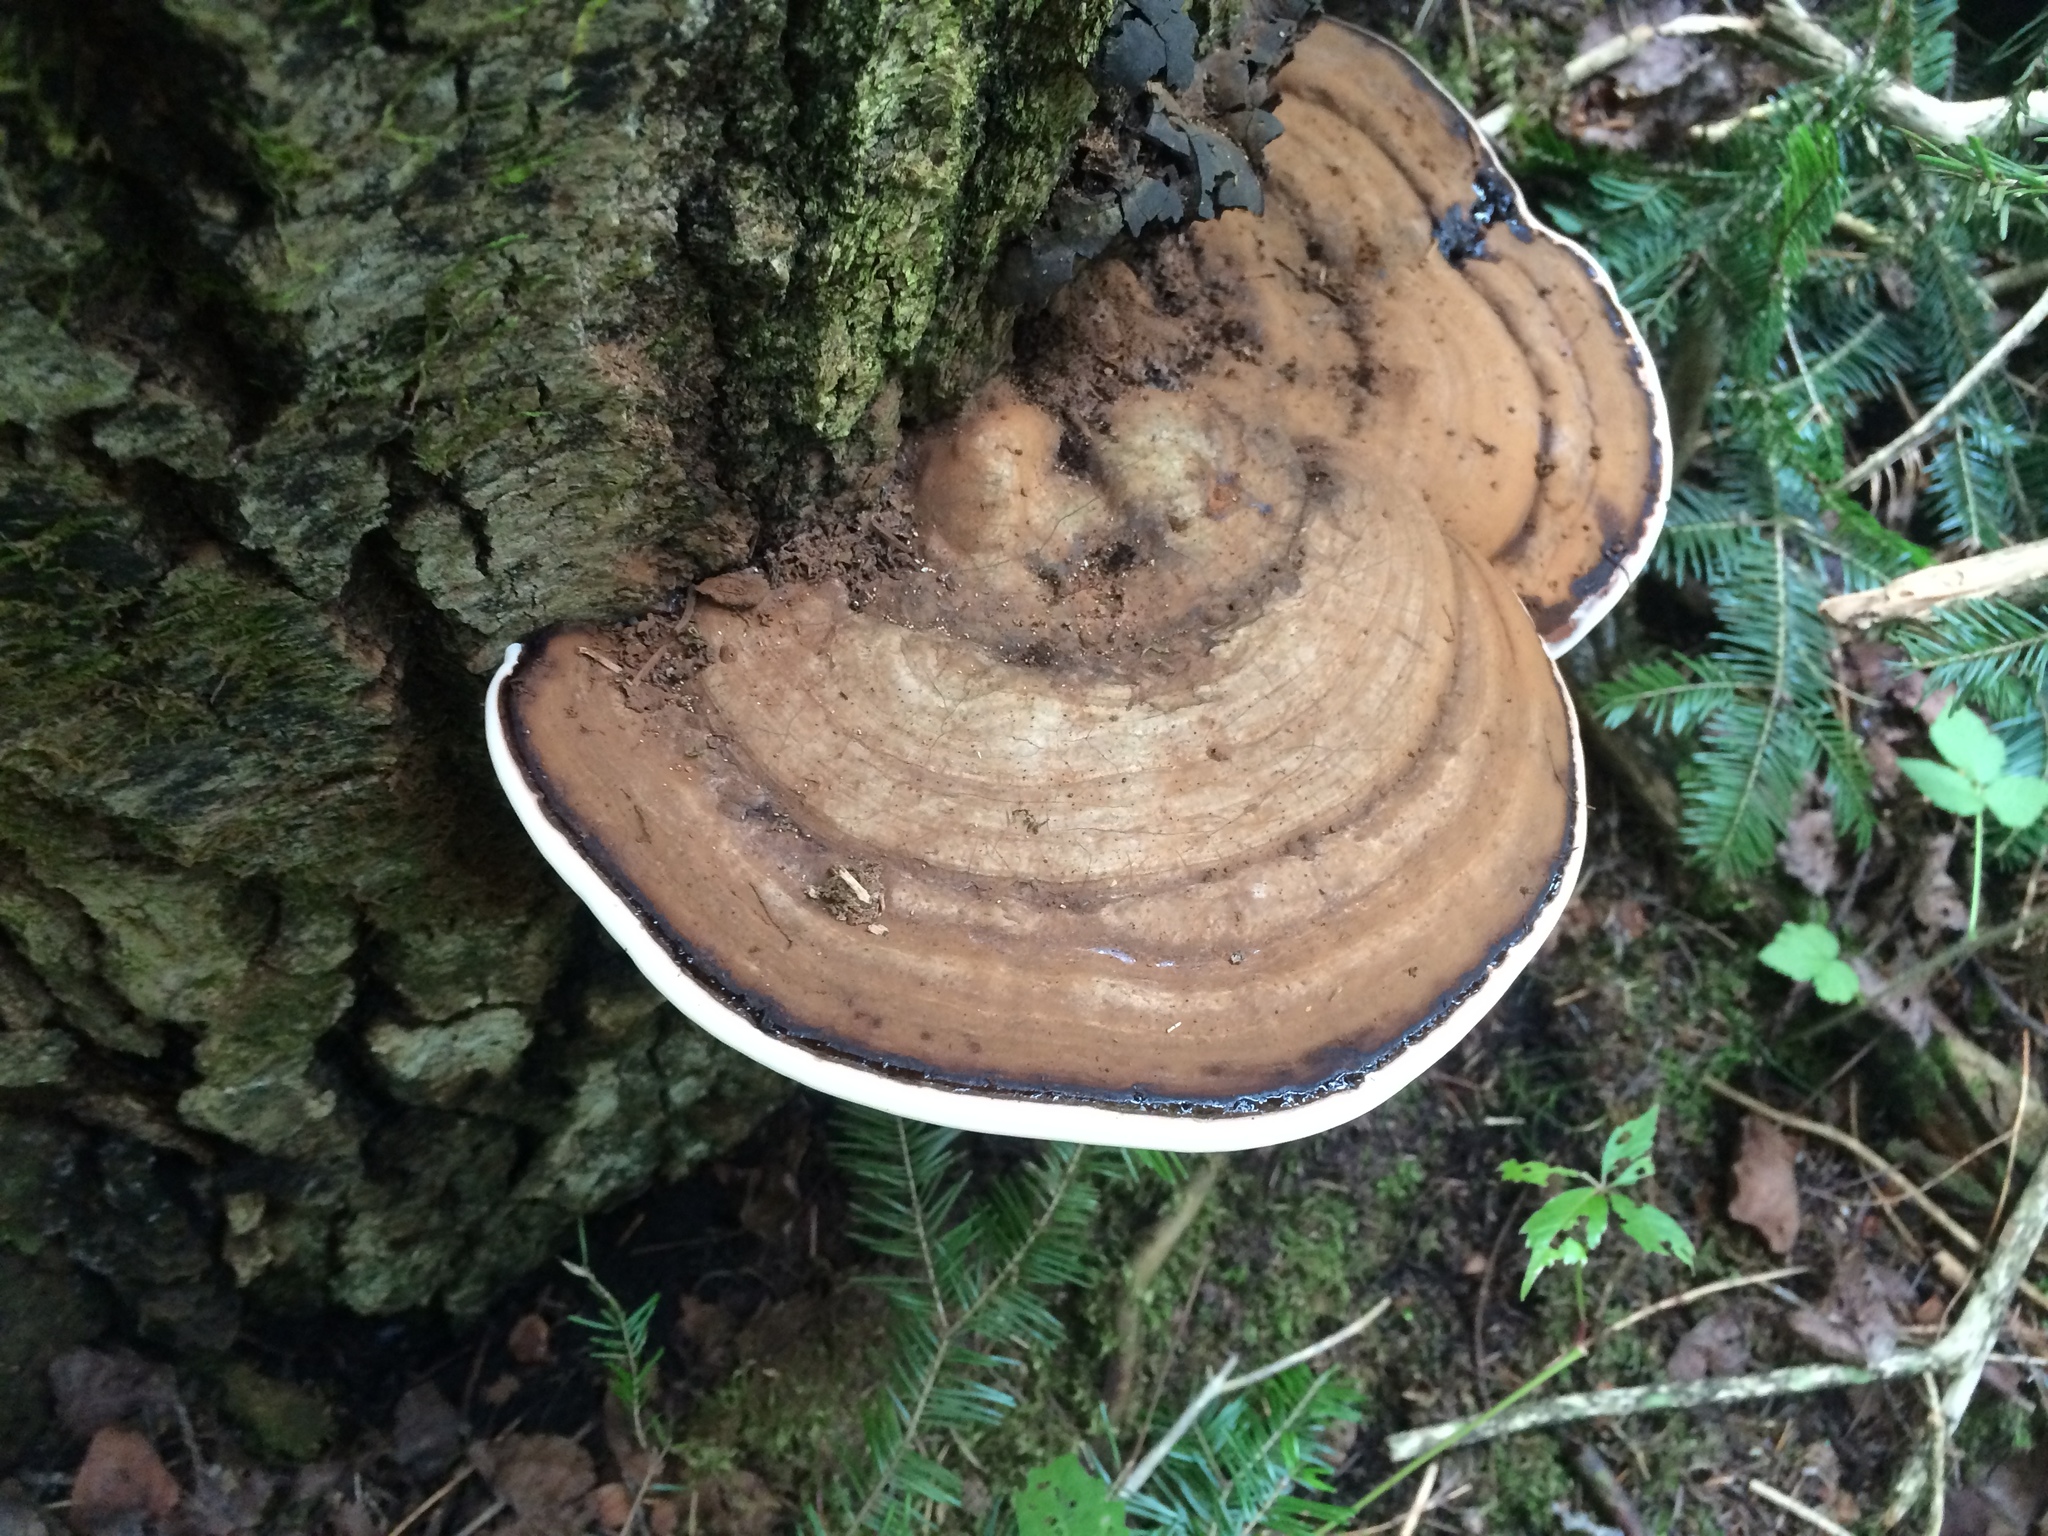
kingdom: Fungi
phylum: Basidiomycota
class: Agaricomycetes
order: Polyporales
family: Polyporaceae
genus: Ganoderma
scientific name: Ganoderma applanatum
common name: Artist's bracket
